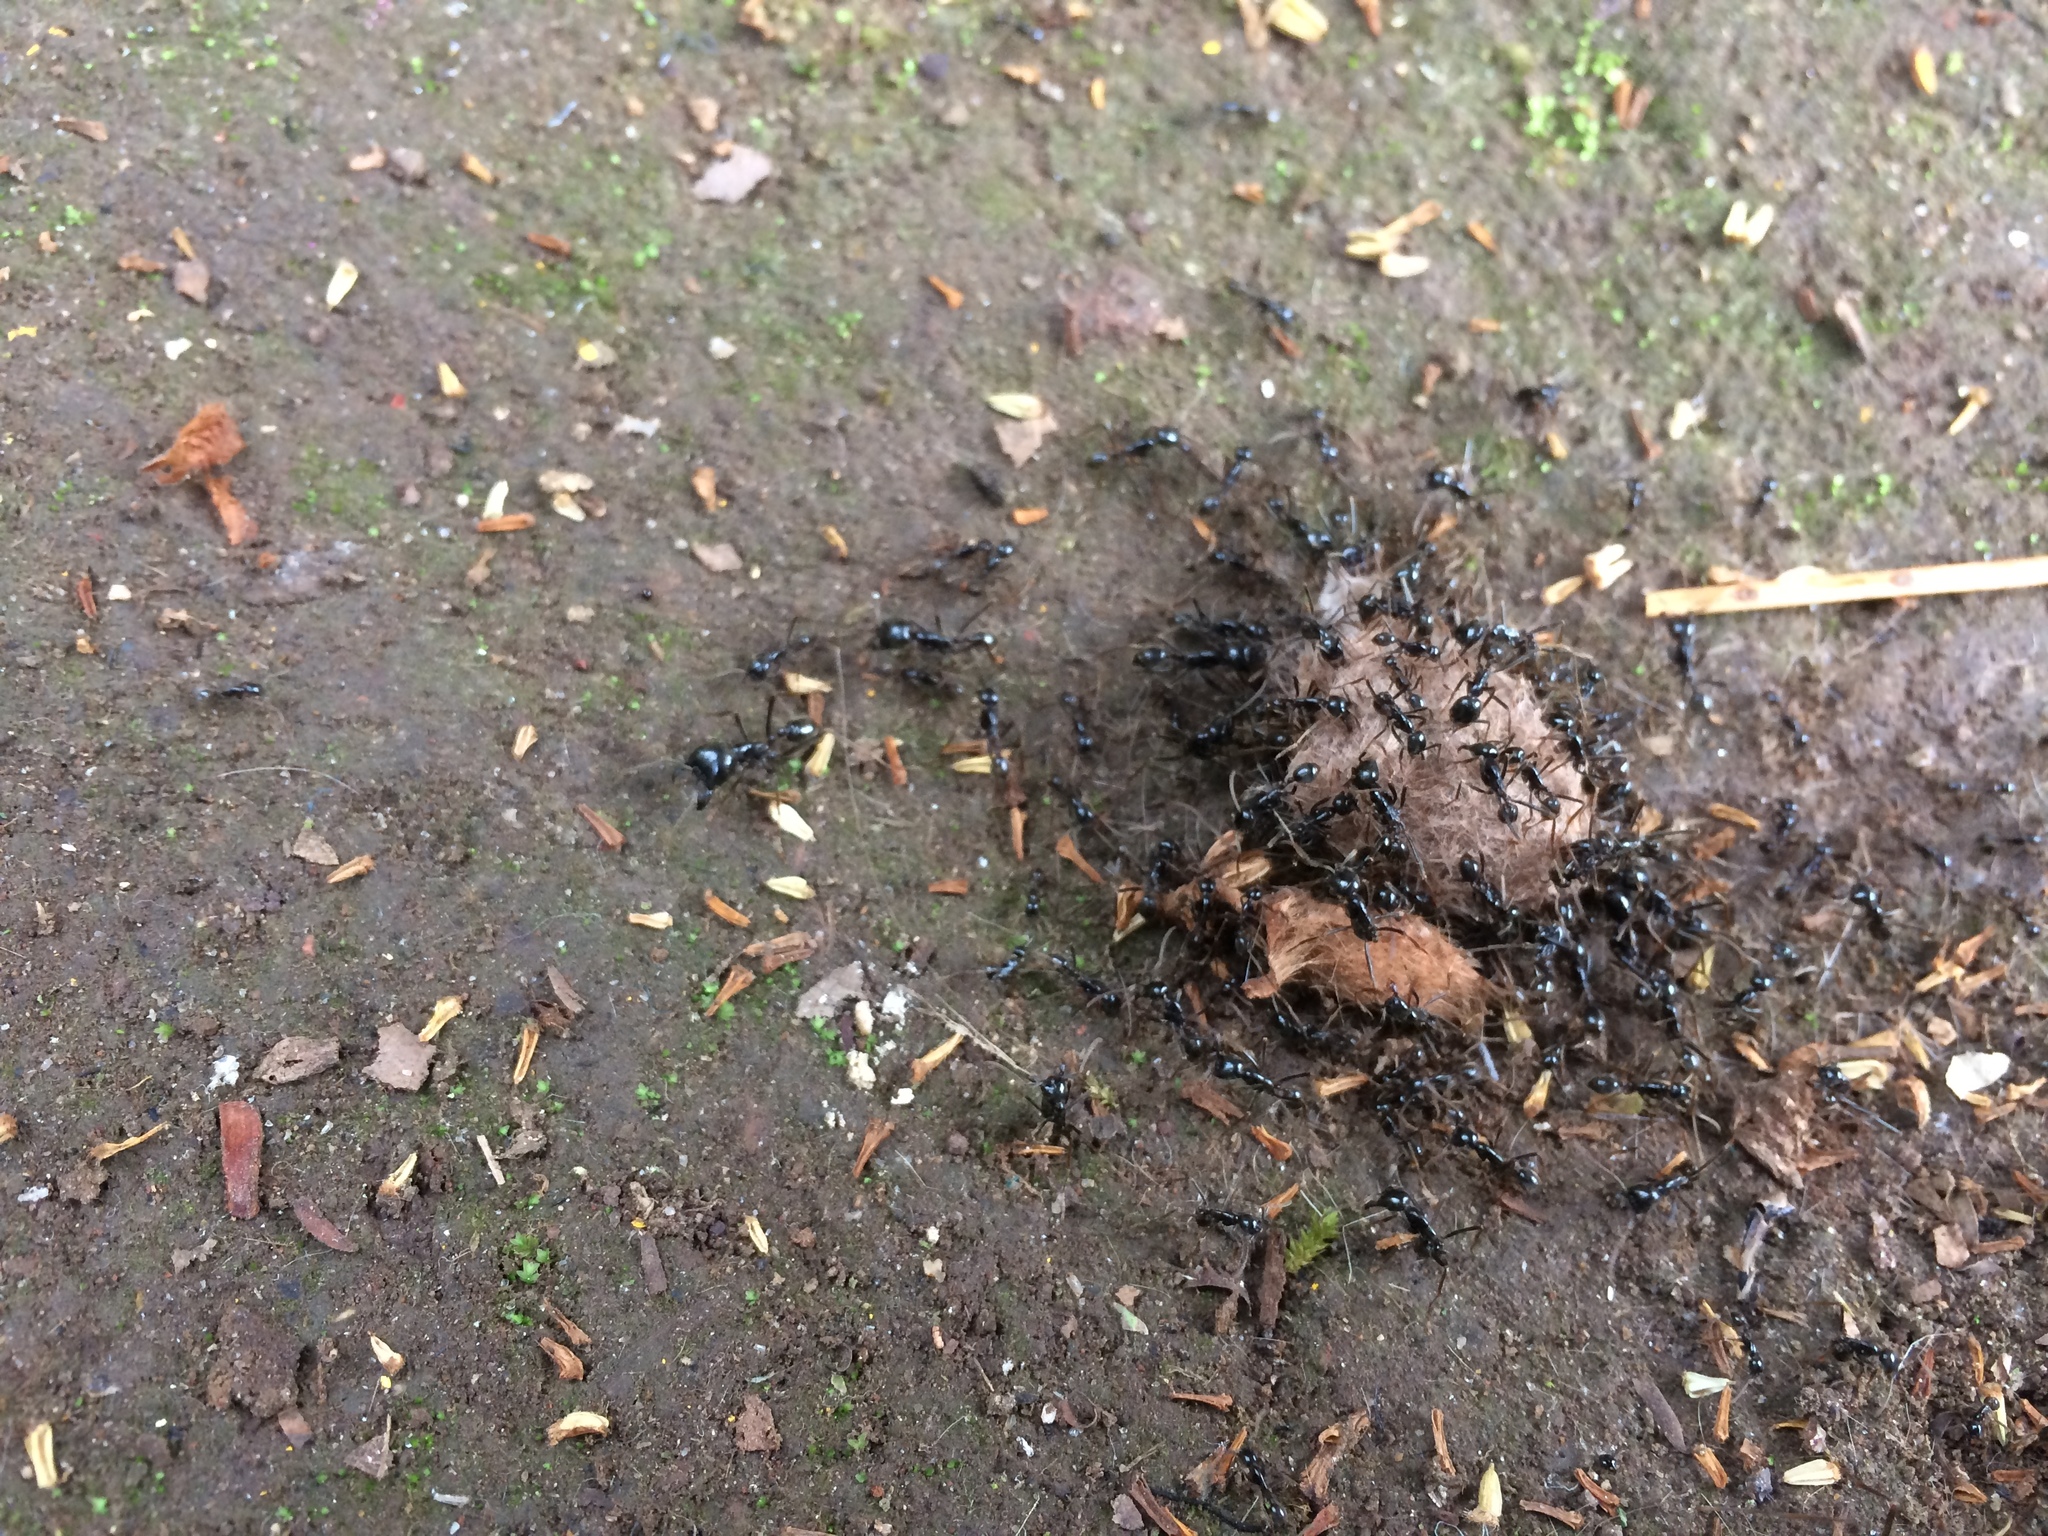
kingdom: Animalia
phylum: Arthropoda
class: Insecta
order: Hymenoptera
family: Formicidae
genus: Labidus
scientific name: Labidus praedator
